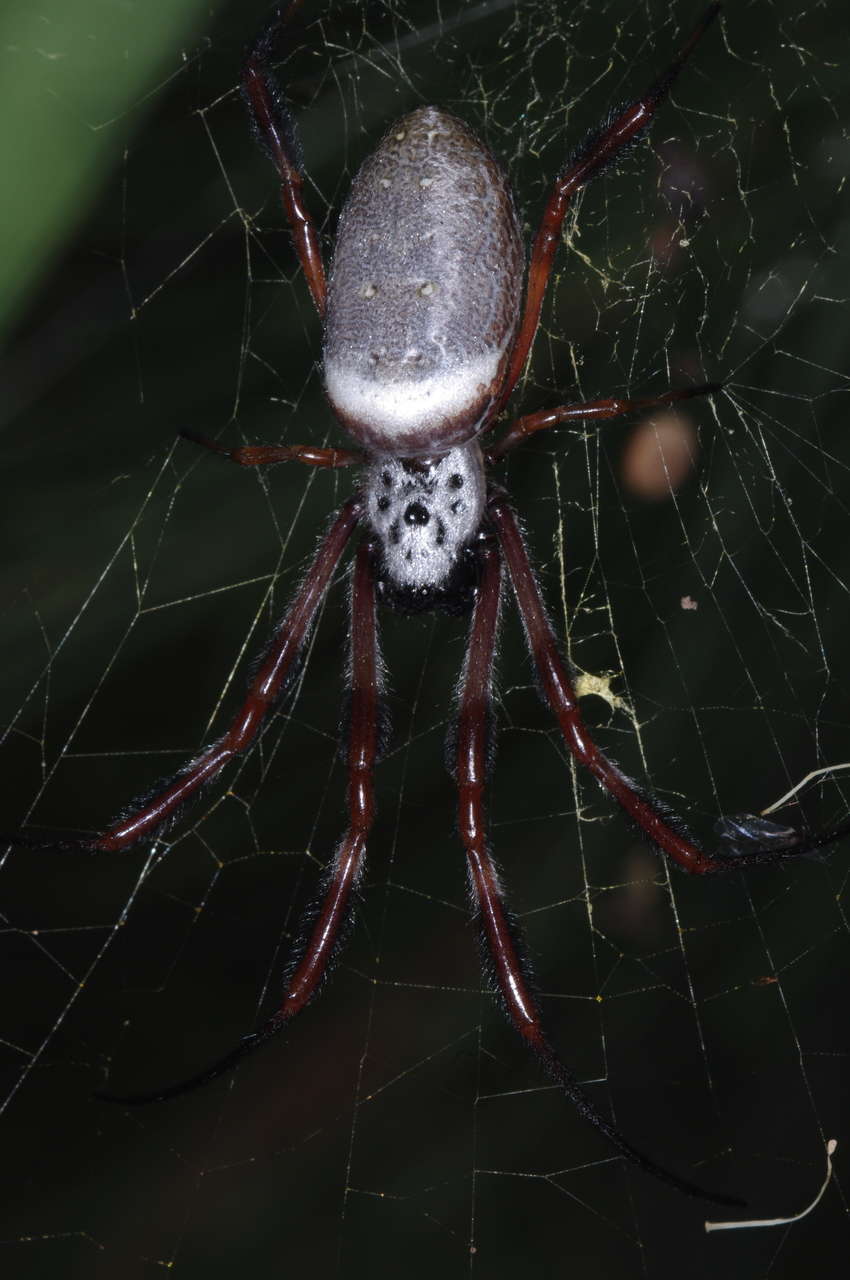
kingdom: Animalia
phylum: Arthropoda
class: Arachnida
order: Araneae
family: Araneidae
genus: Trichonephila
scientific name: Trichonephila edulis
